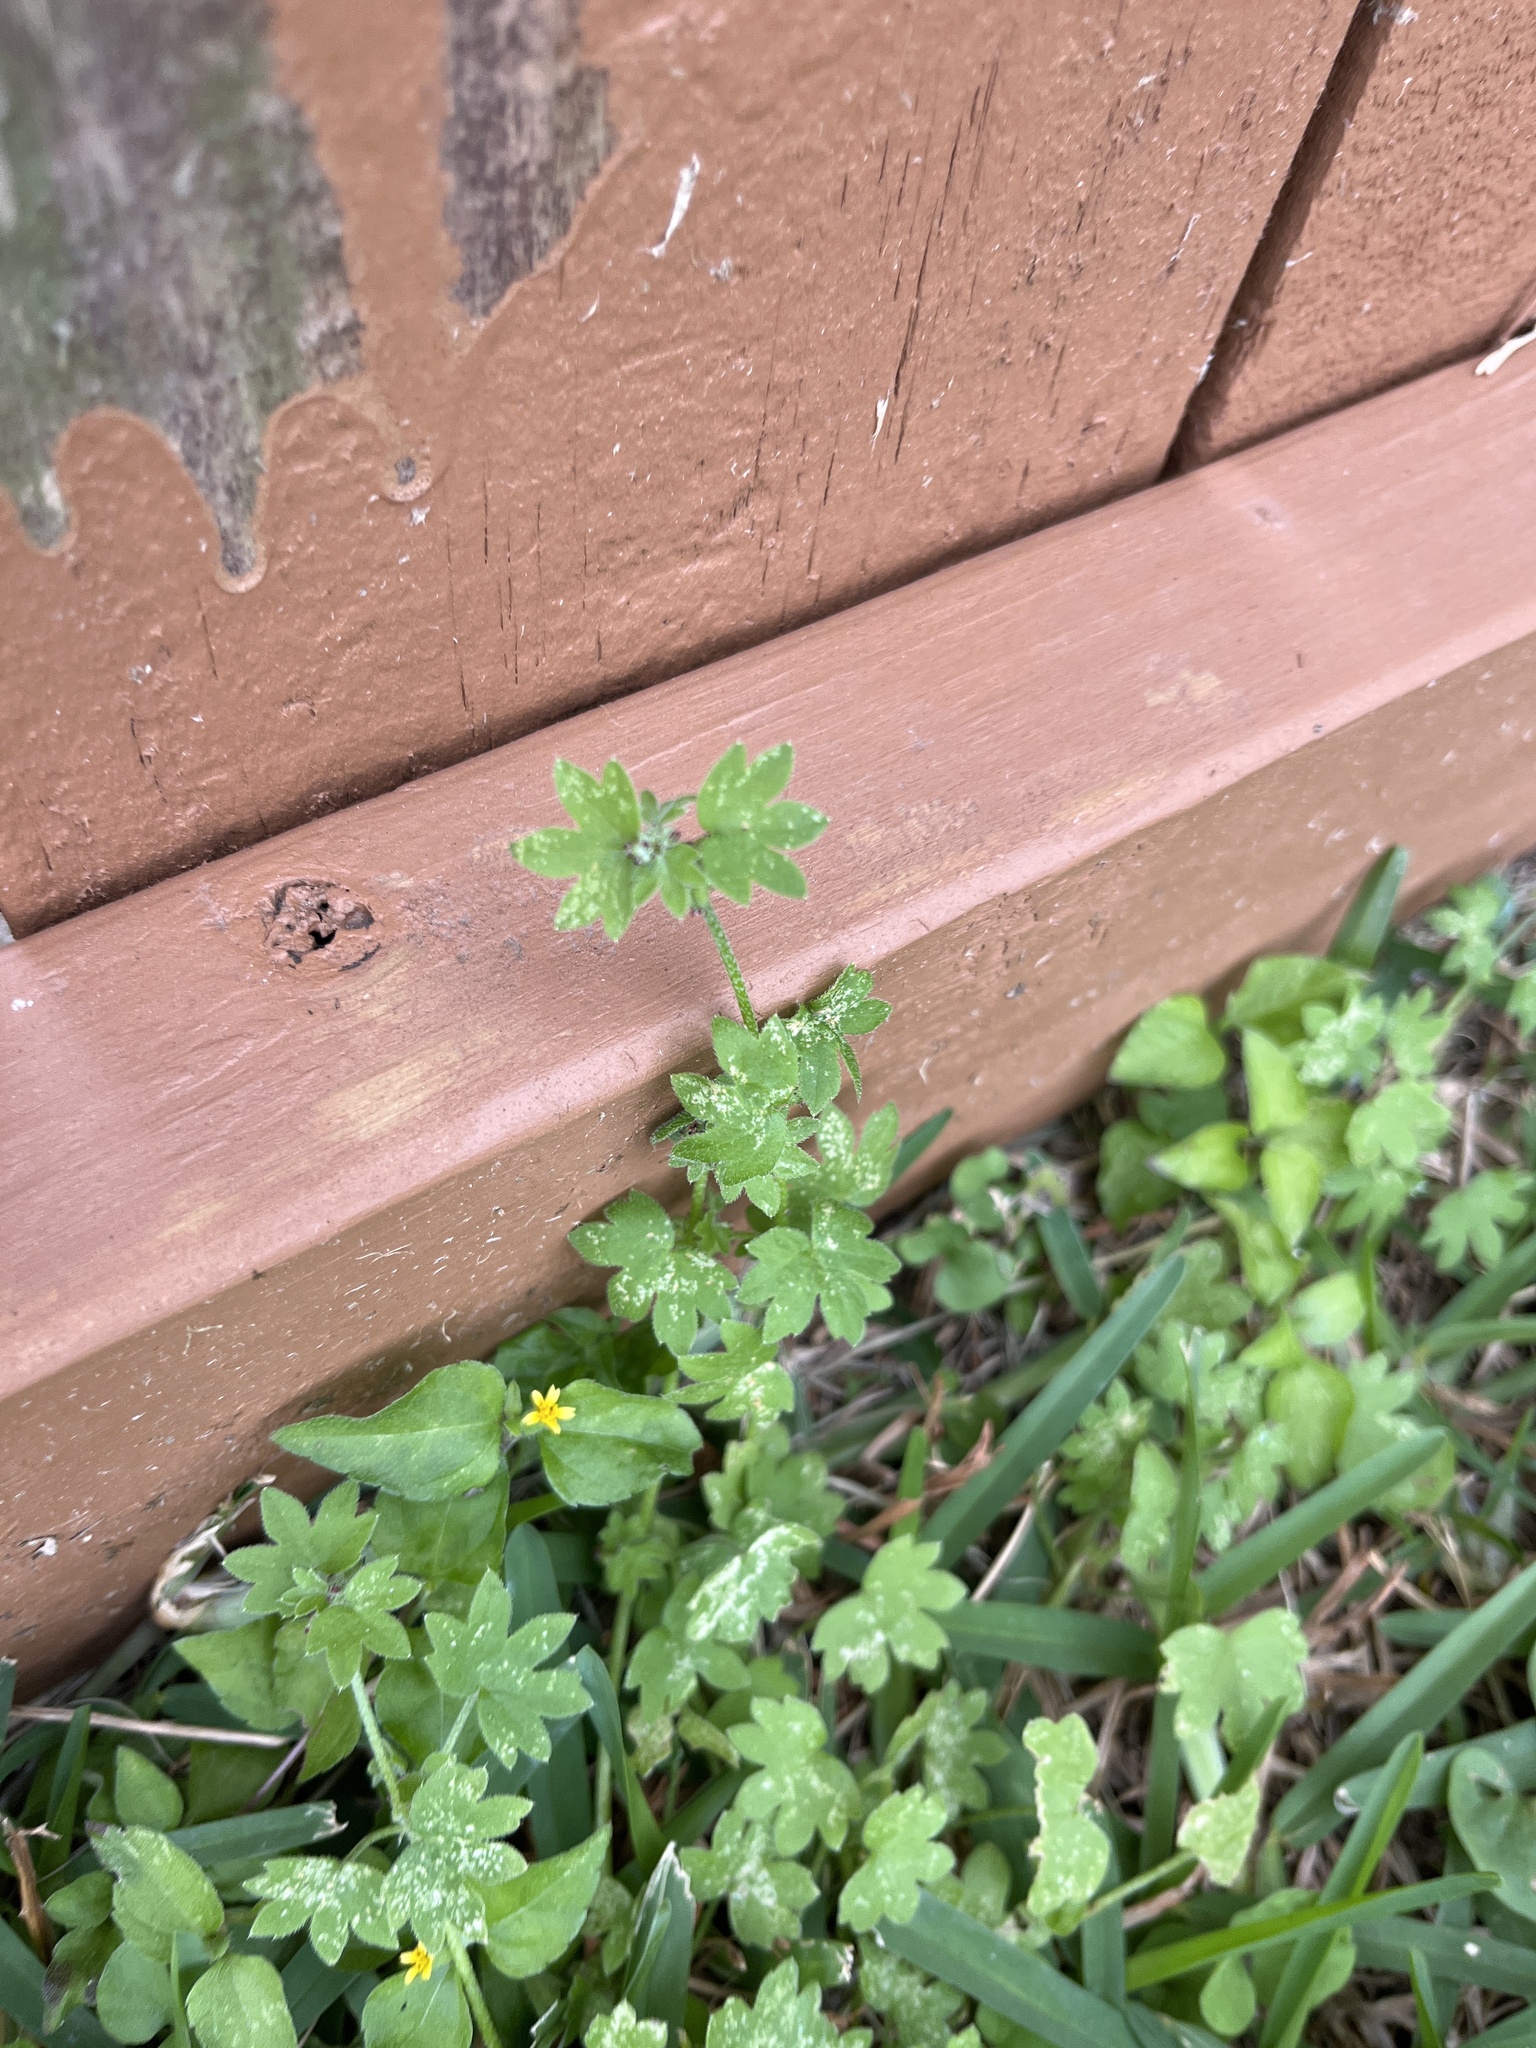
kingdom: Plantae
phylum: Tracheophyta
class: Magnoliopsida
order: Apiales
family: Apiaceae
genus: Bowlesia
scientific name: Bowlesia incana
